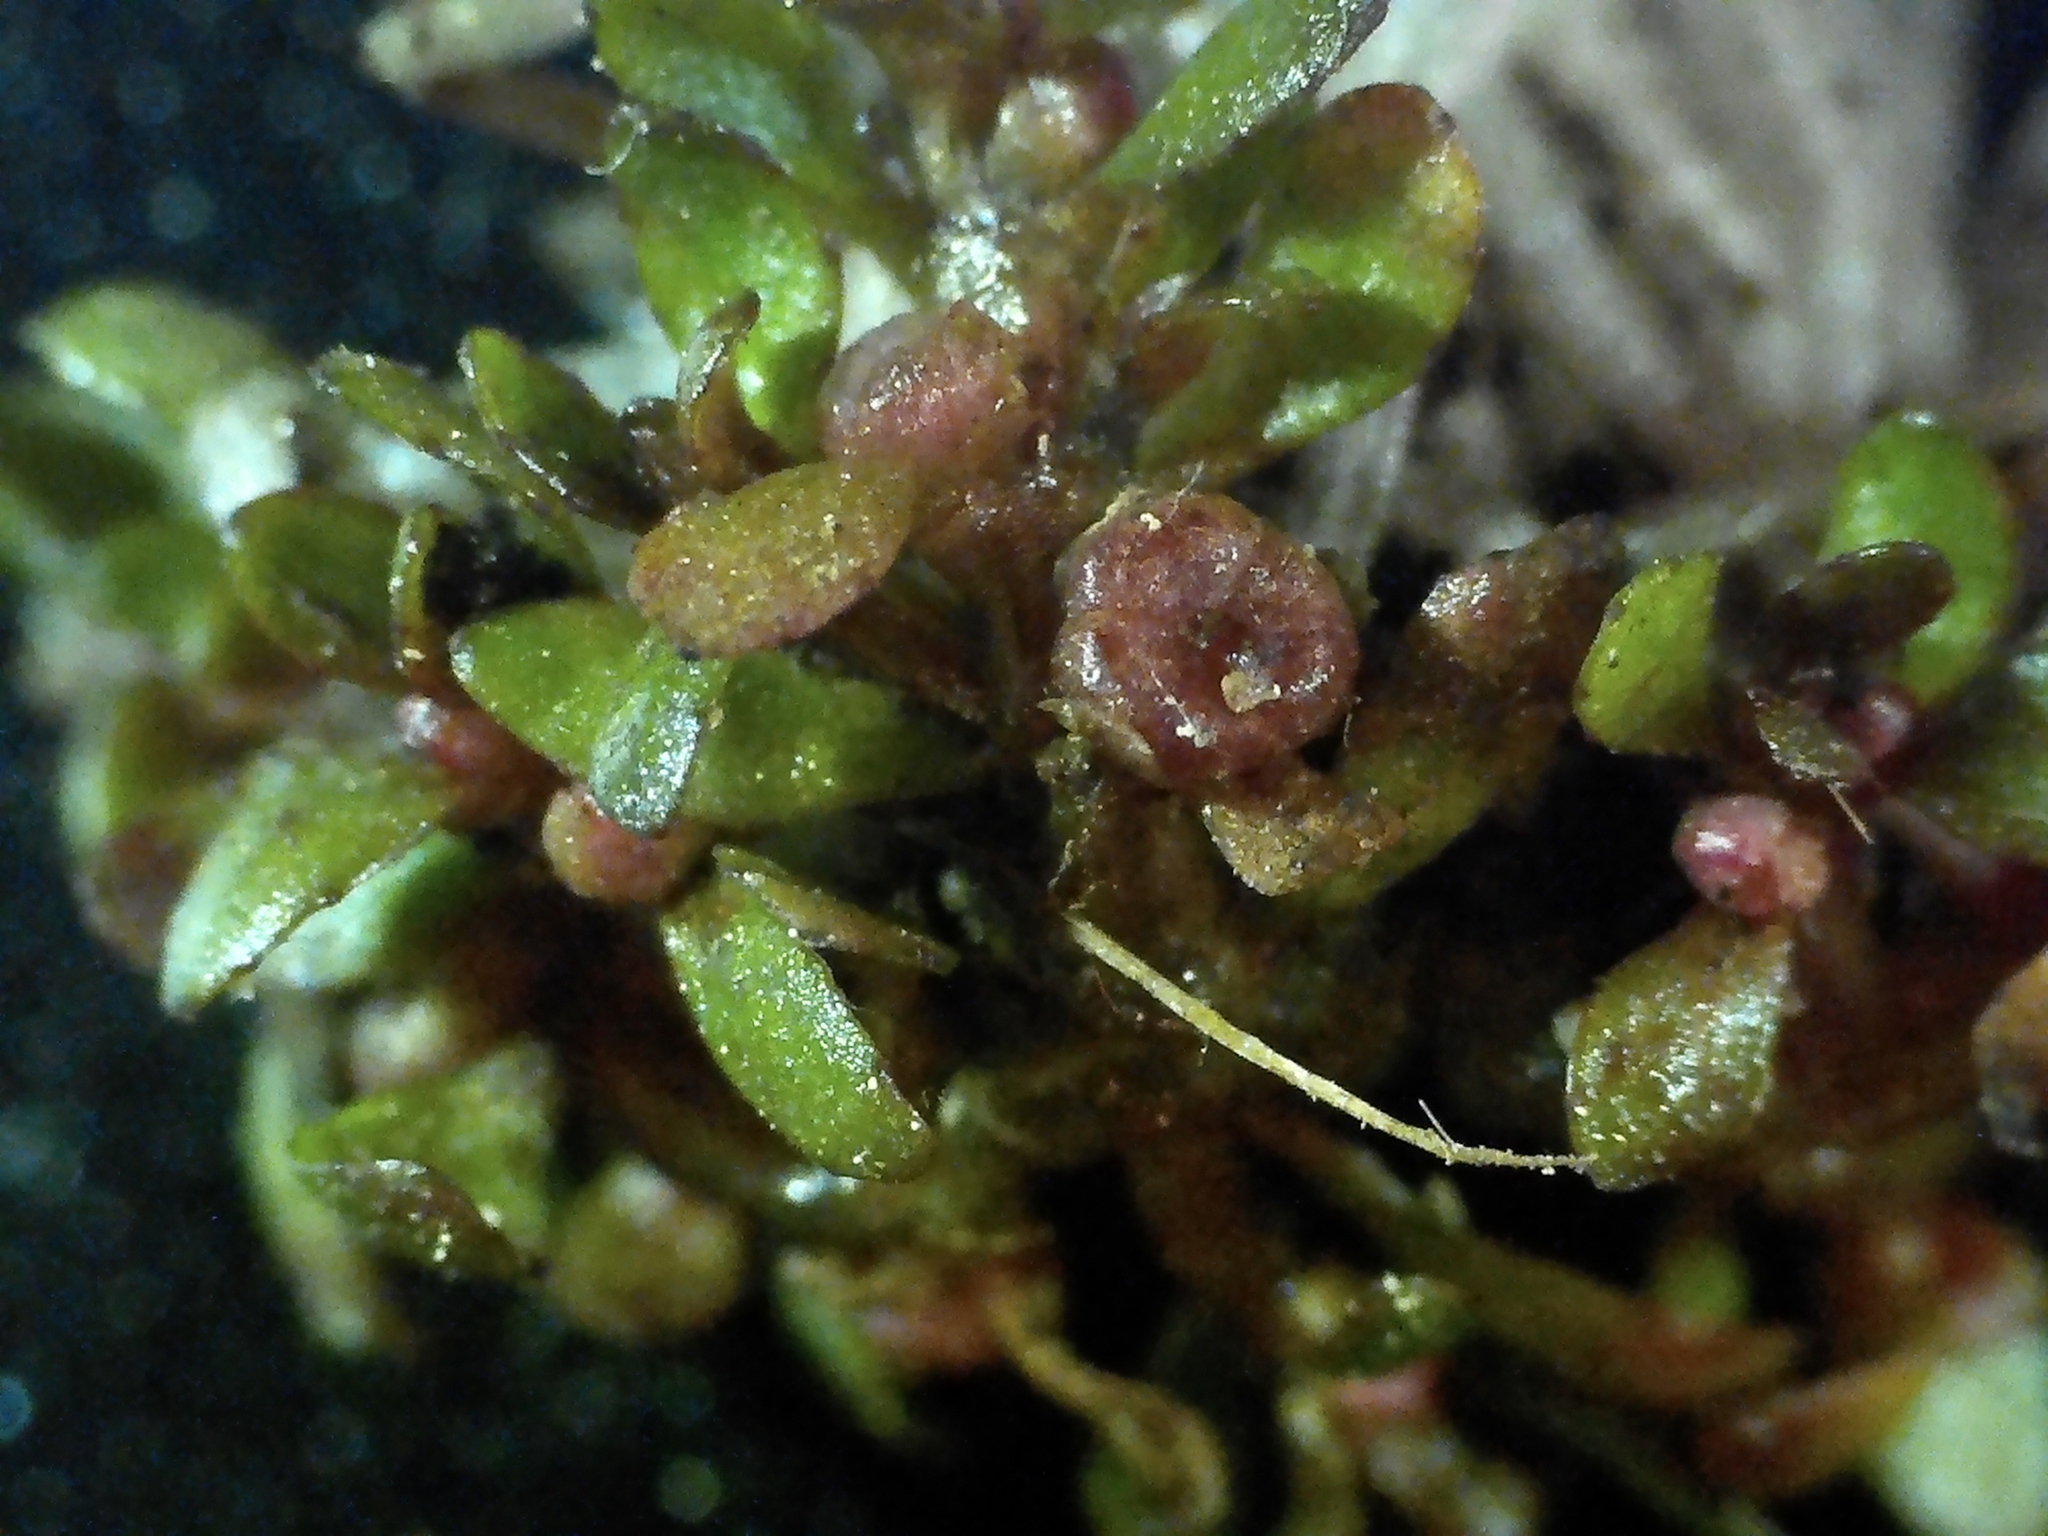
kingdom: Plantae
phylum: Tracheophyta
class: Magnoliopsida
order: Malpighiales
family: Elatinaceae
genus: Elatine
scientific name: Elatine americana
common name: American waterwort
